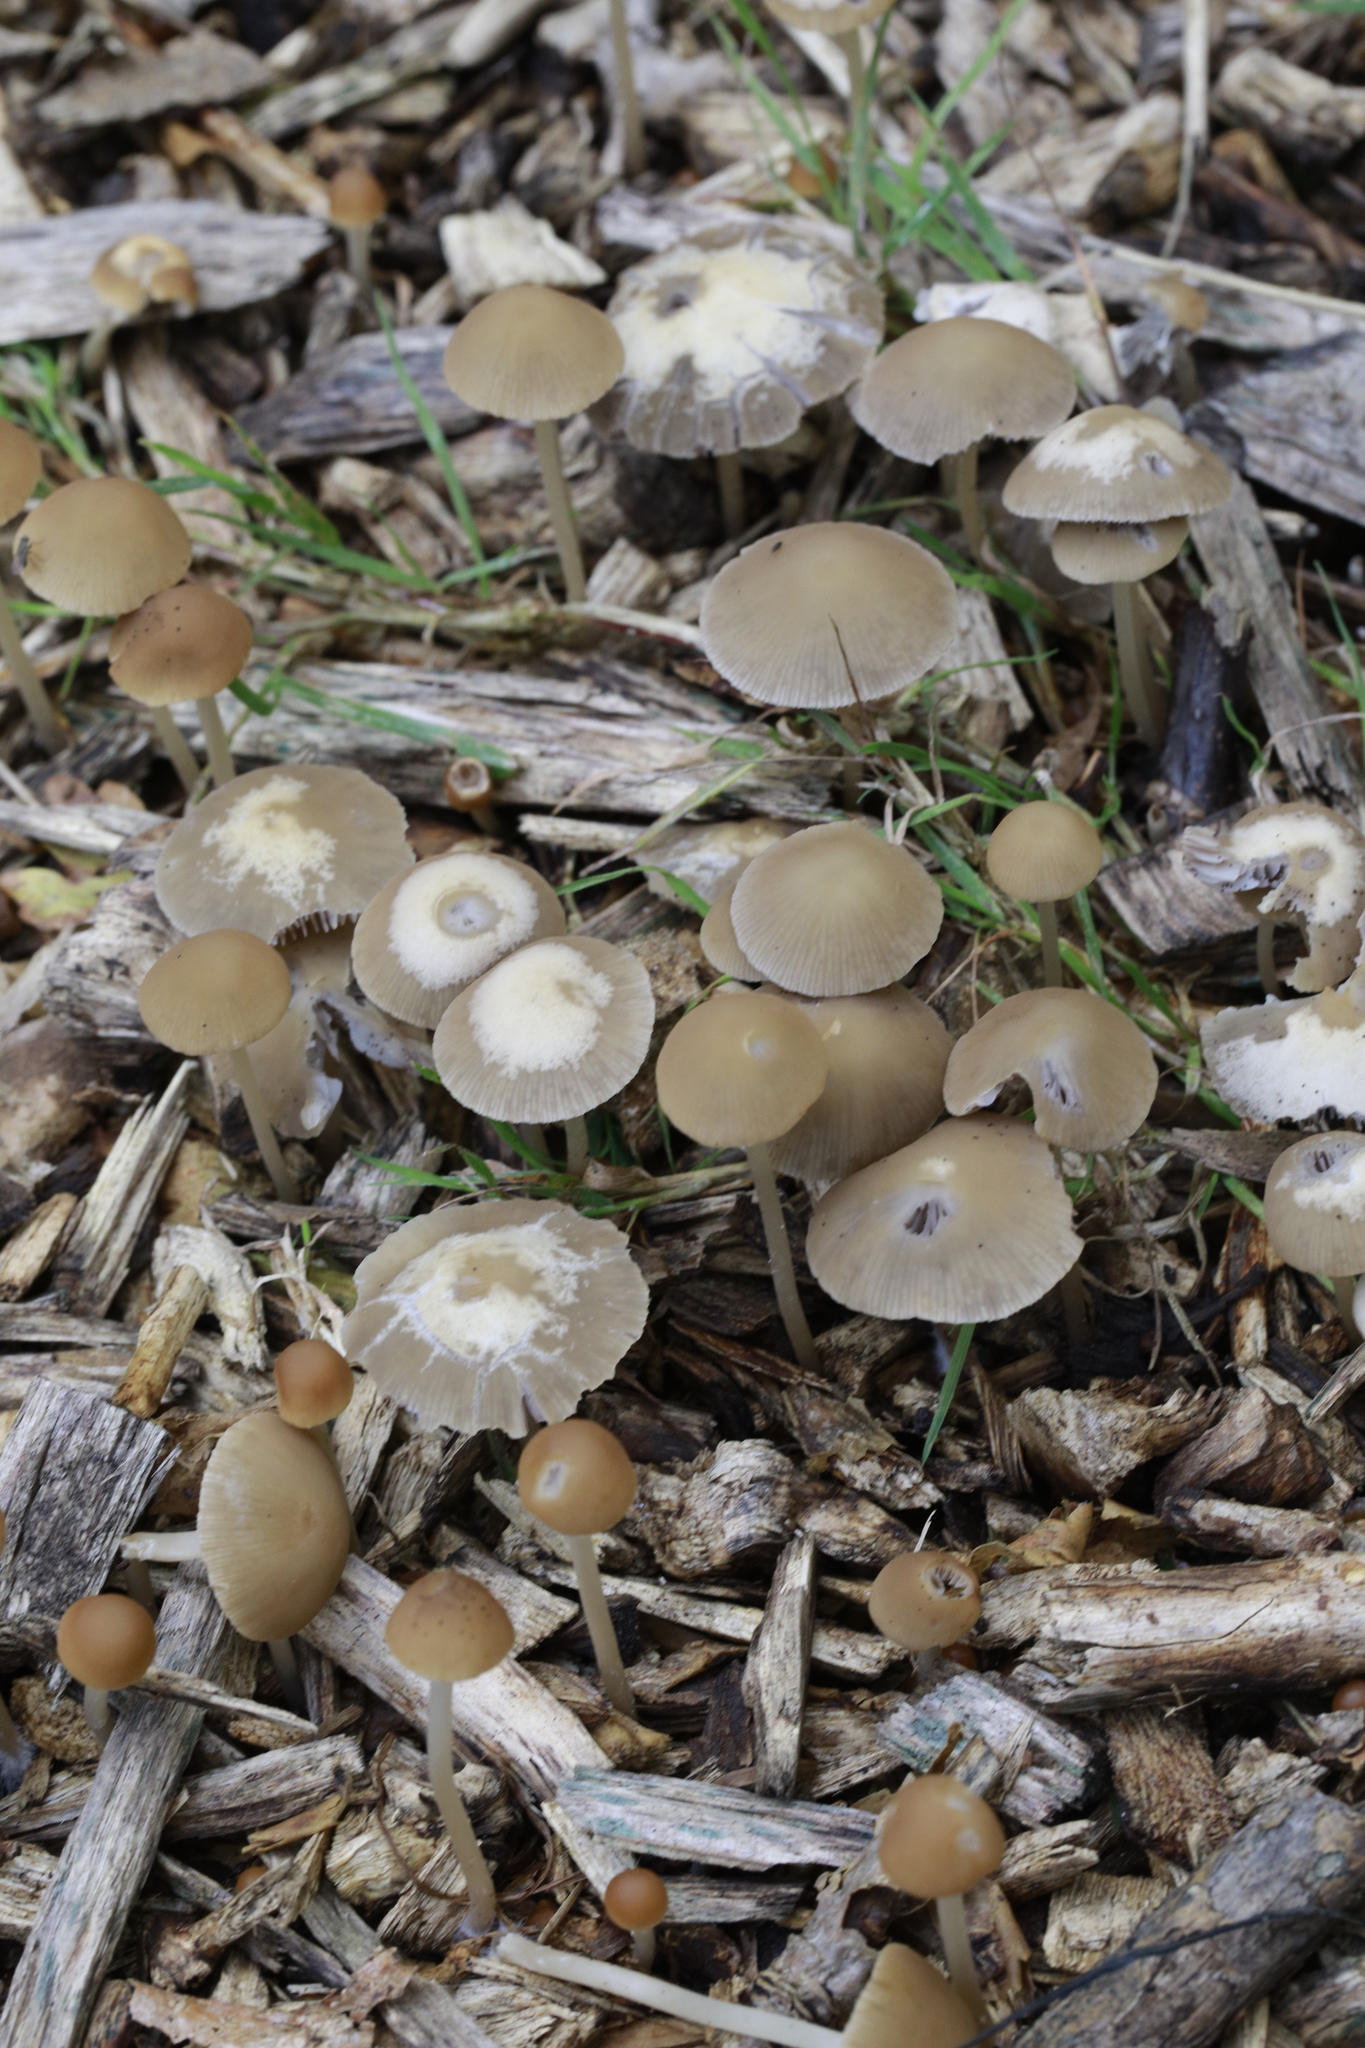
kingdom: Fungi
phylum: Basidiomycota
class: Agaricomycetes
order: Agaricales
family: Psathyrellaceae
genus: Candolleomyces
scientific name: Candolleomyces candolleanus
